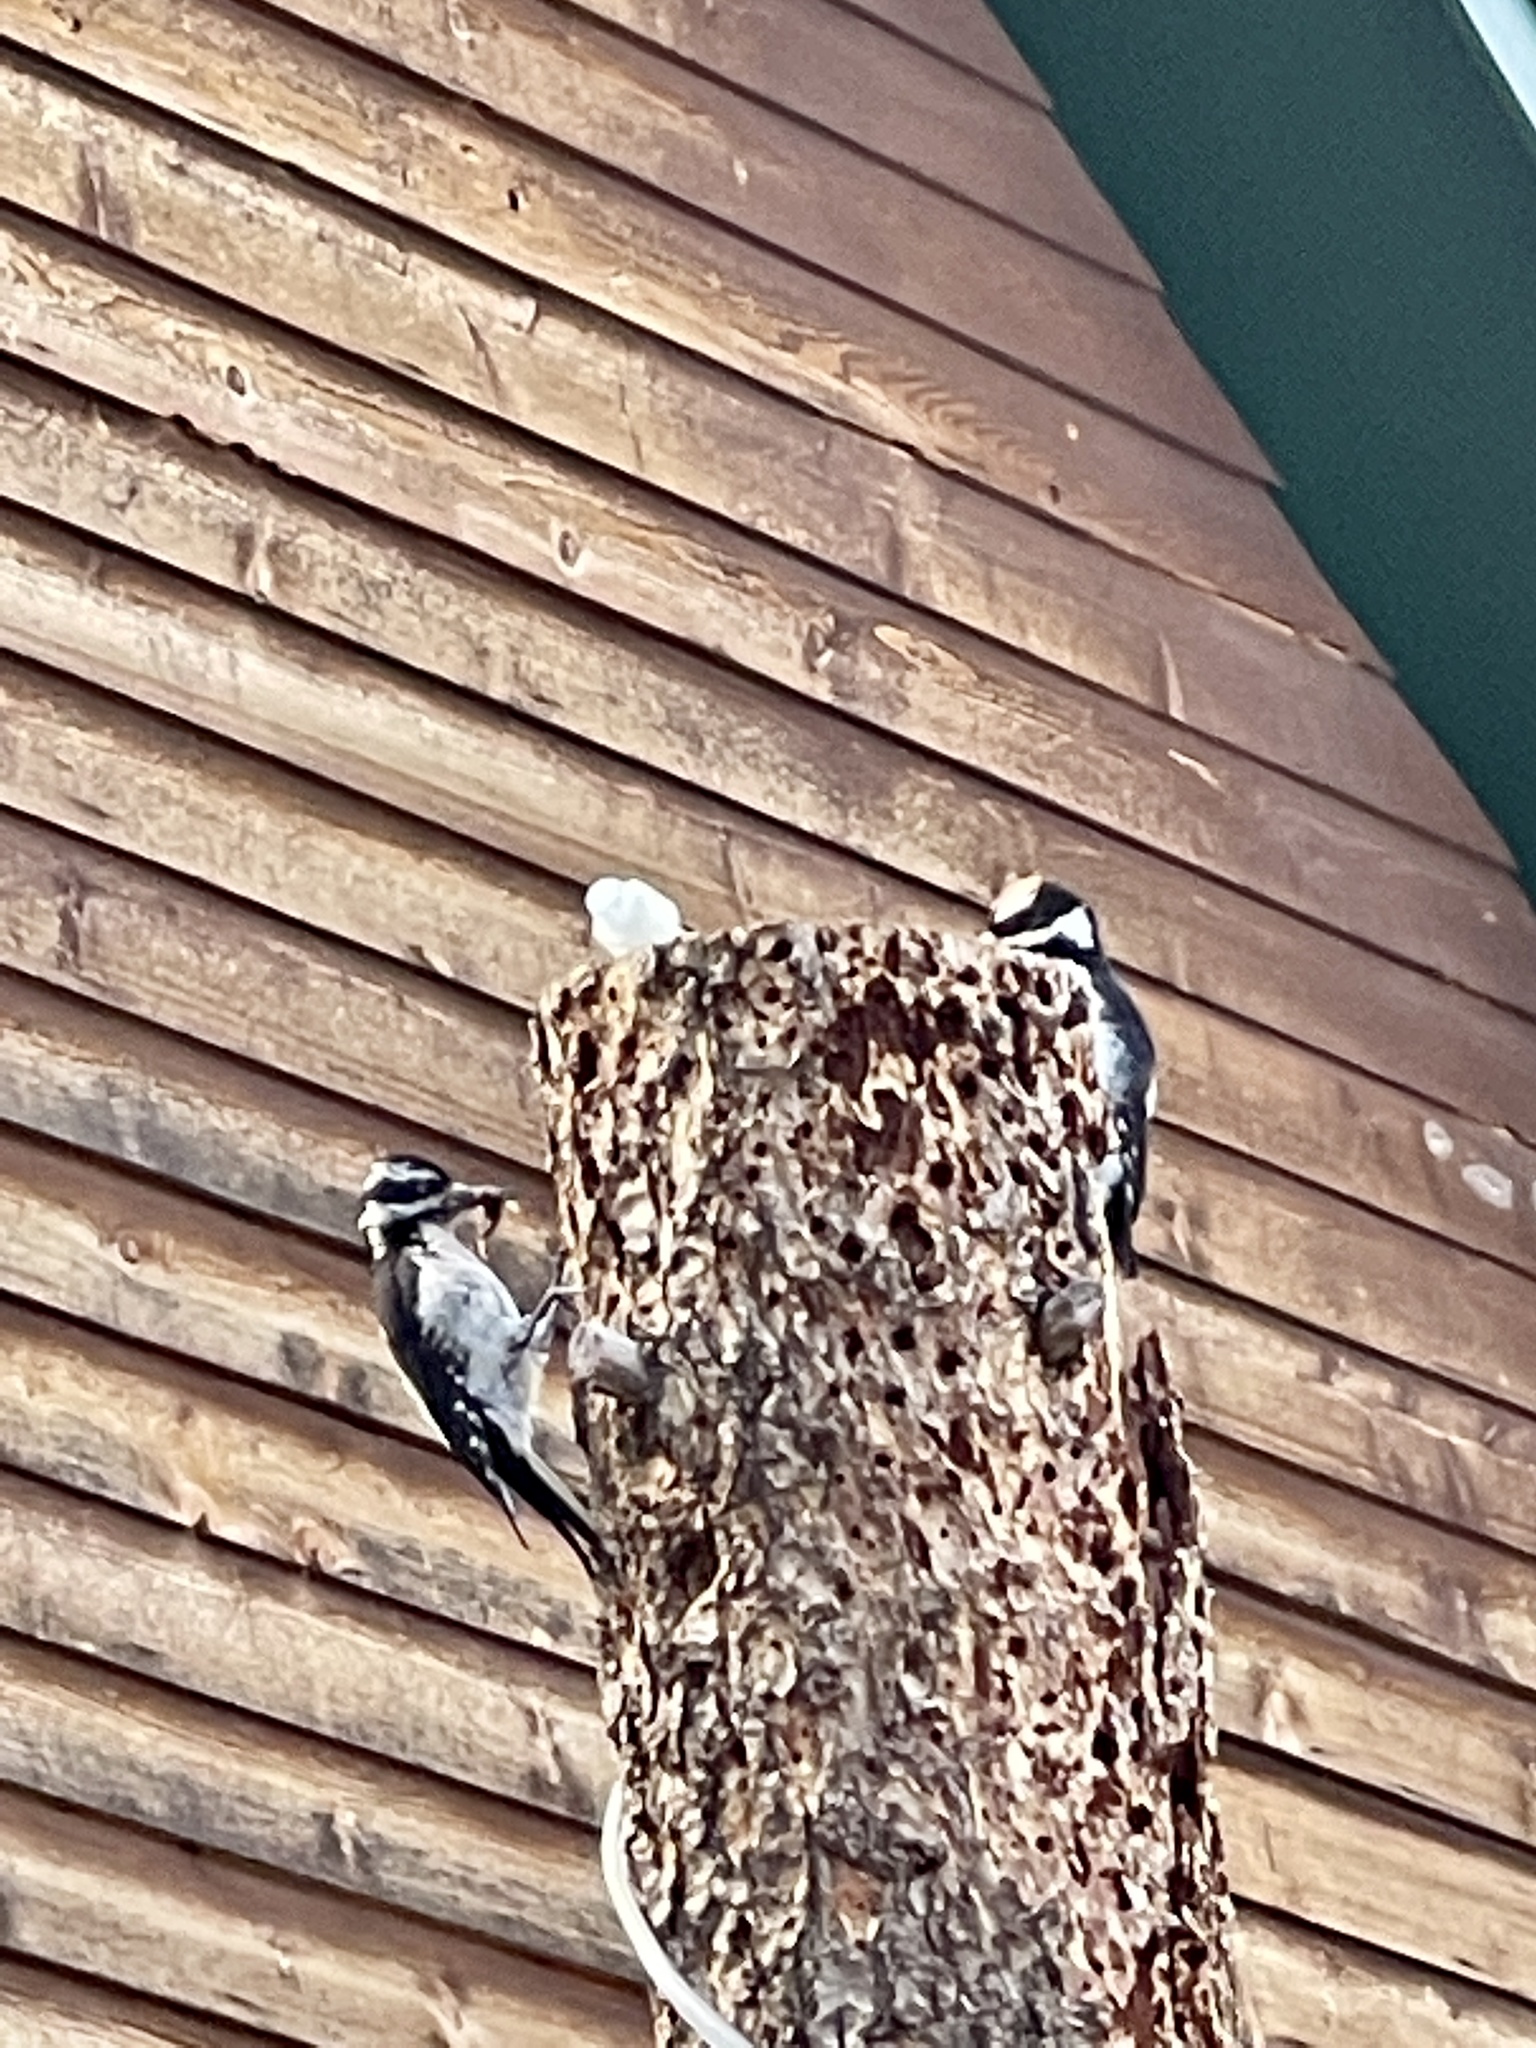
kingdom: Animalia
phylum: Chordata
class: Aves
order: Piciformes
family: Picidae
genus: Leuconotopicus
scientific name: Leuconotopicus villosus
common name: Hairy woodpecker
